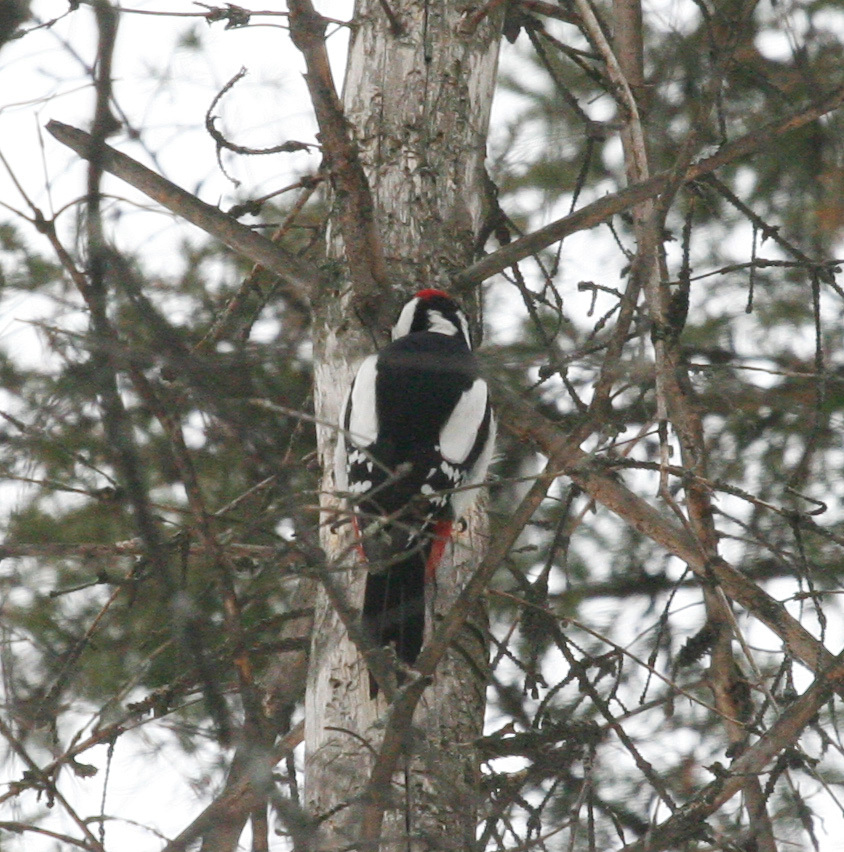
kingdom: Animalia
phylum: Chordata
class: Aves
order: Piciformes
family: Picidae
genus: Dendrocopos
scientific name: Dendrocopos major
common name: Great spotted woodpecker
